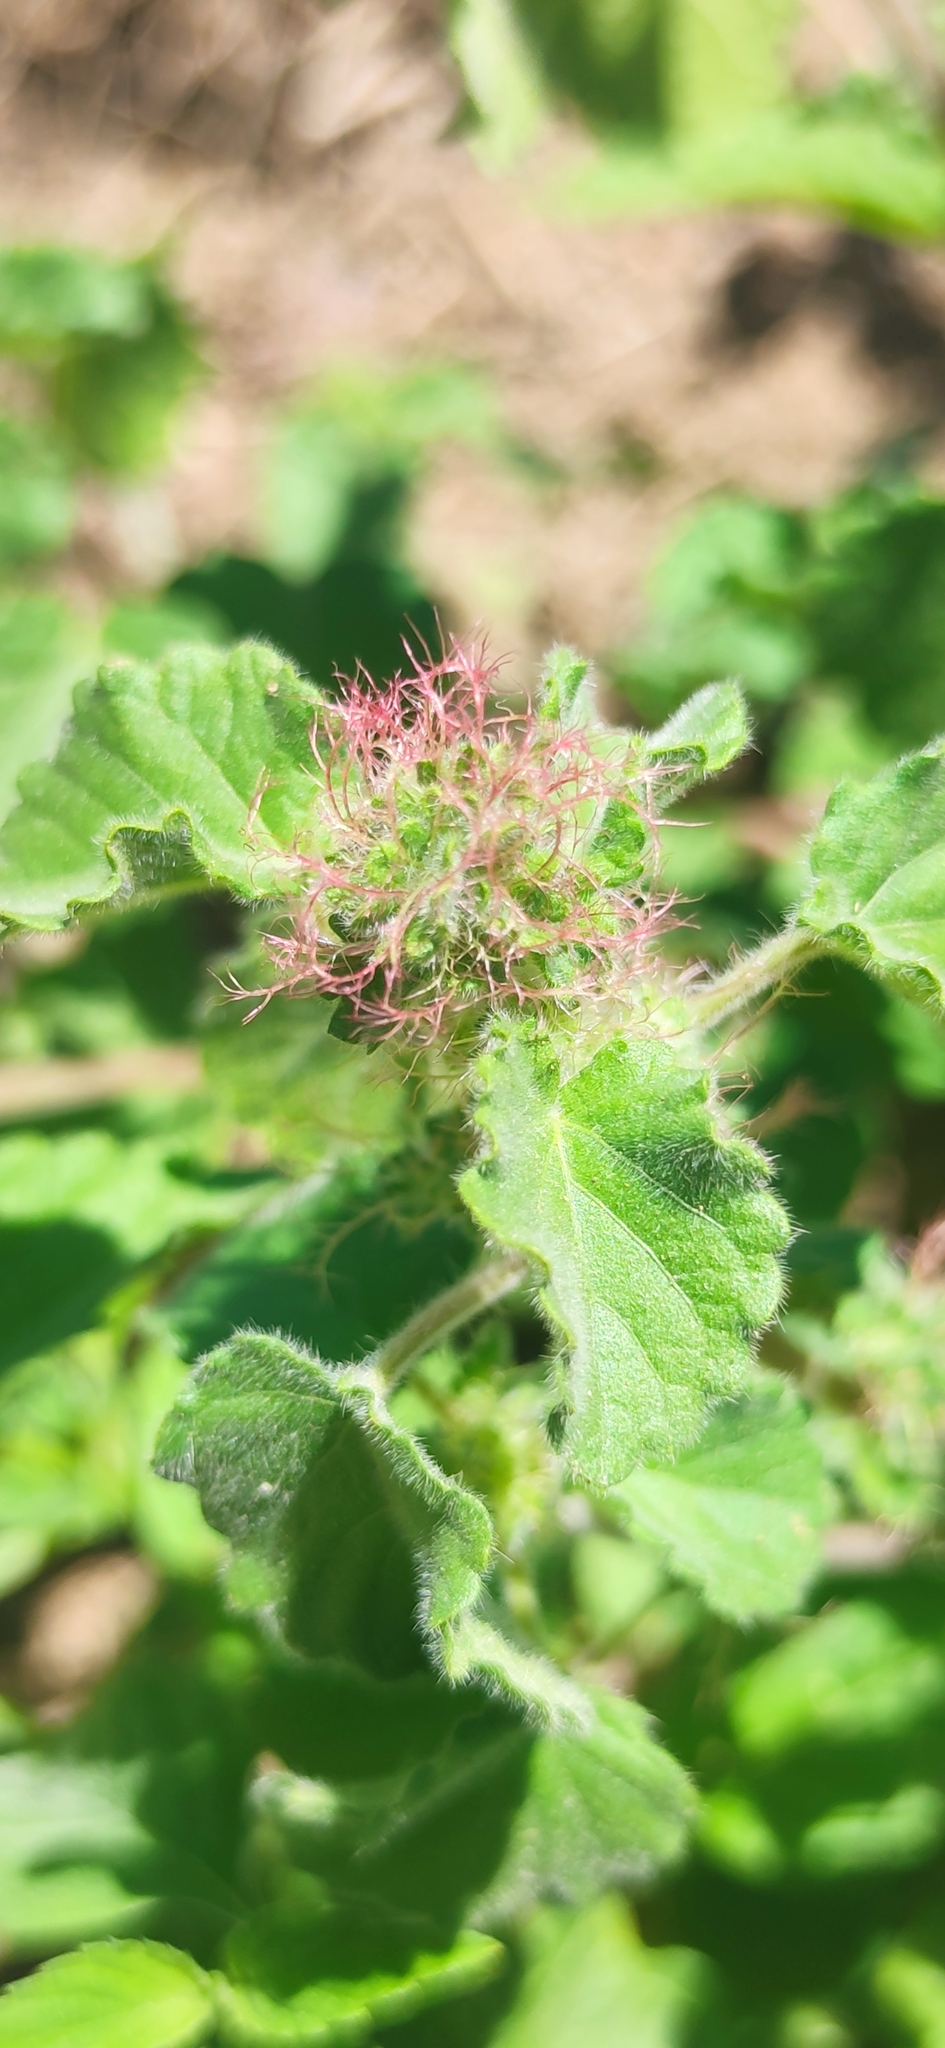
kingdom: Plantae
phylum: Tracheophyta
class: Magnoliopsida
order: Malpighiales
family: Euphorbiaceae
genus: Acalypha
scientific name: Acalypha radians
